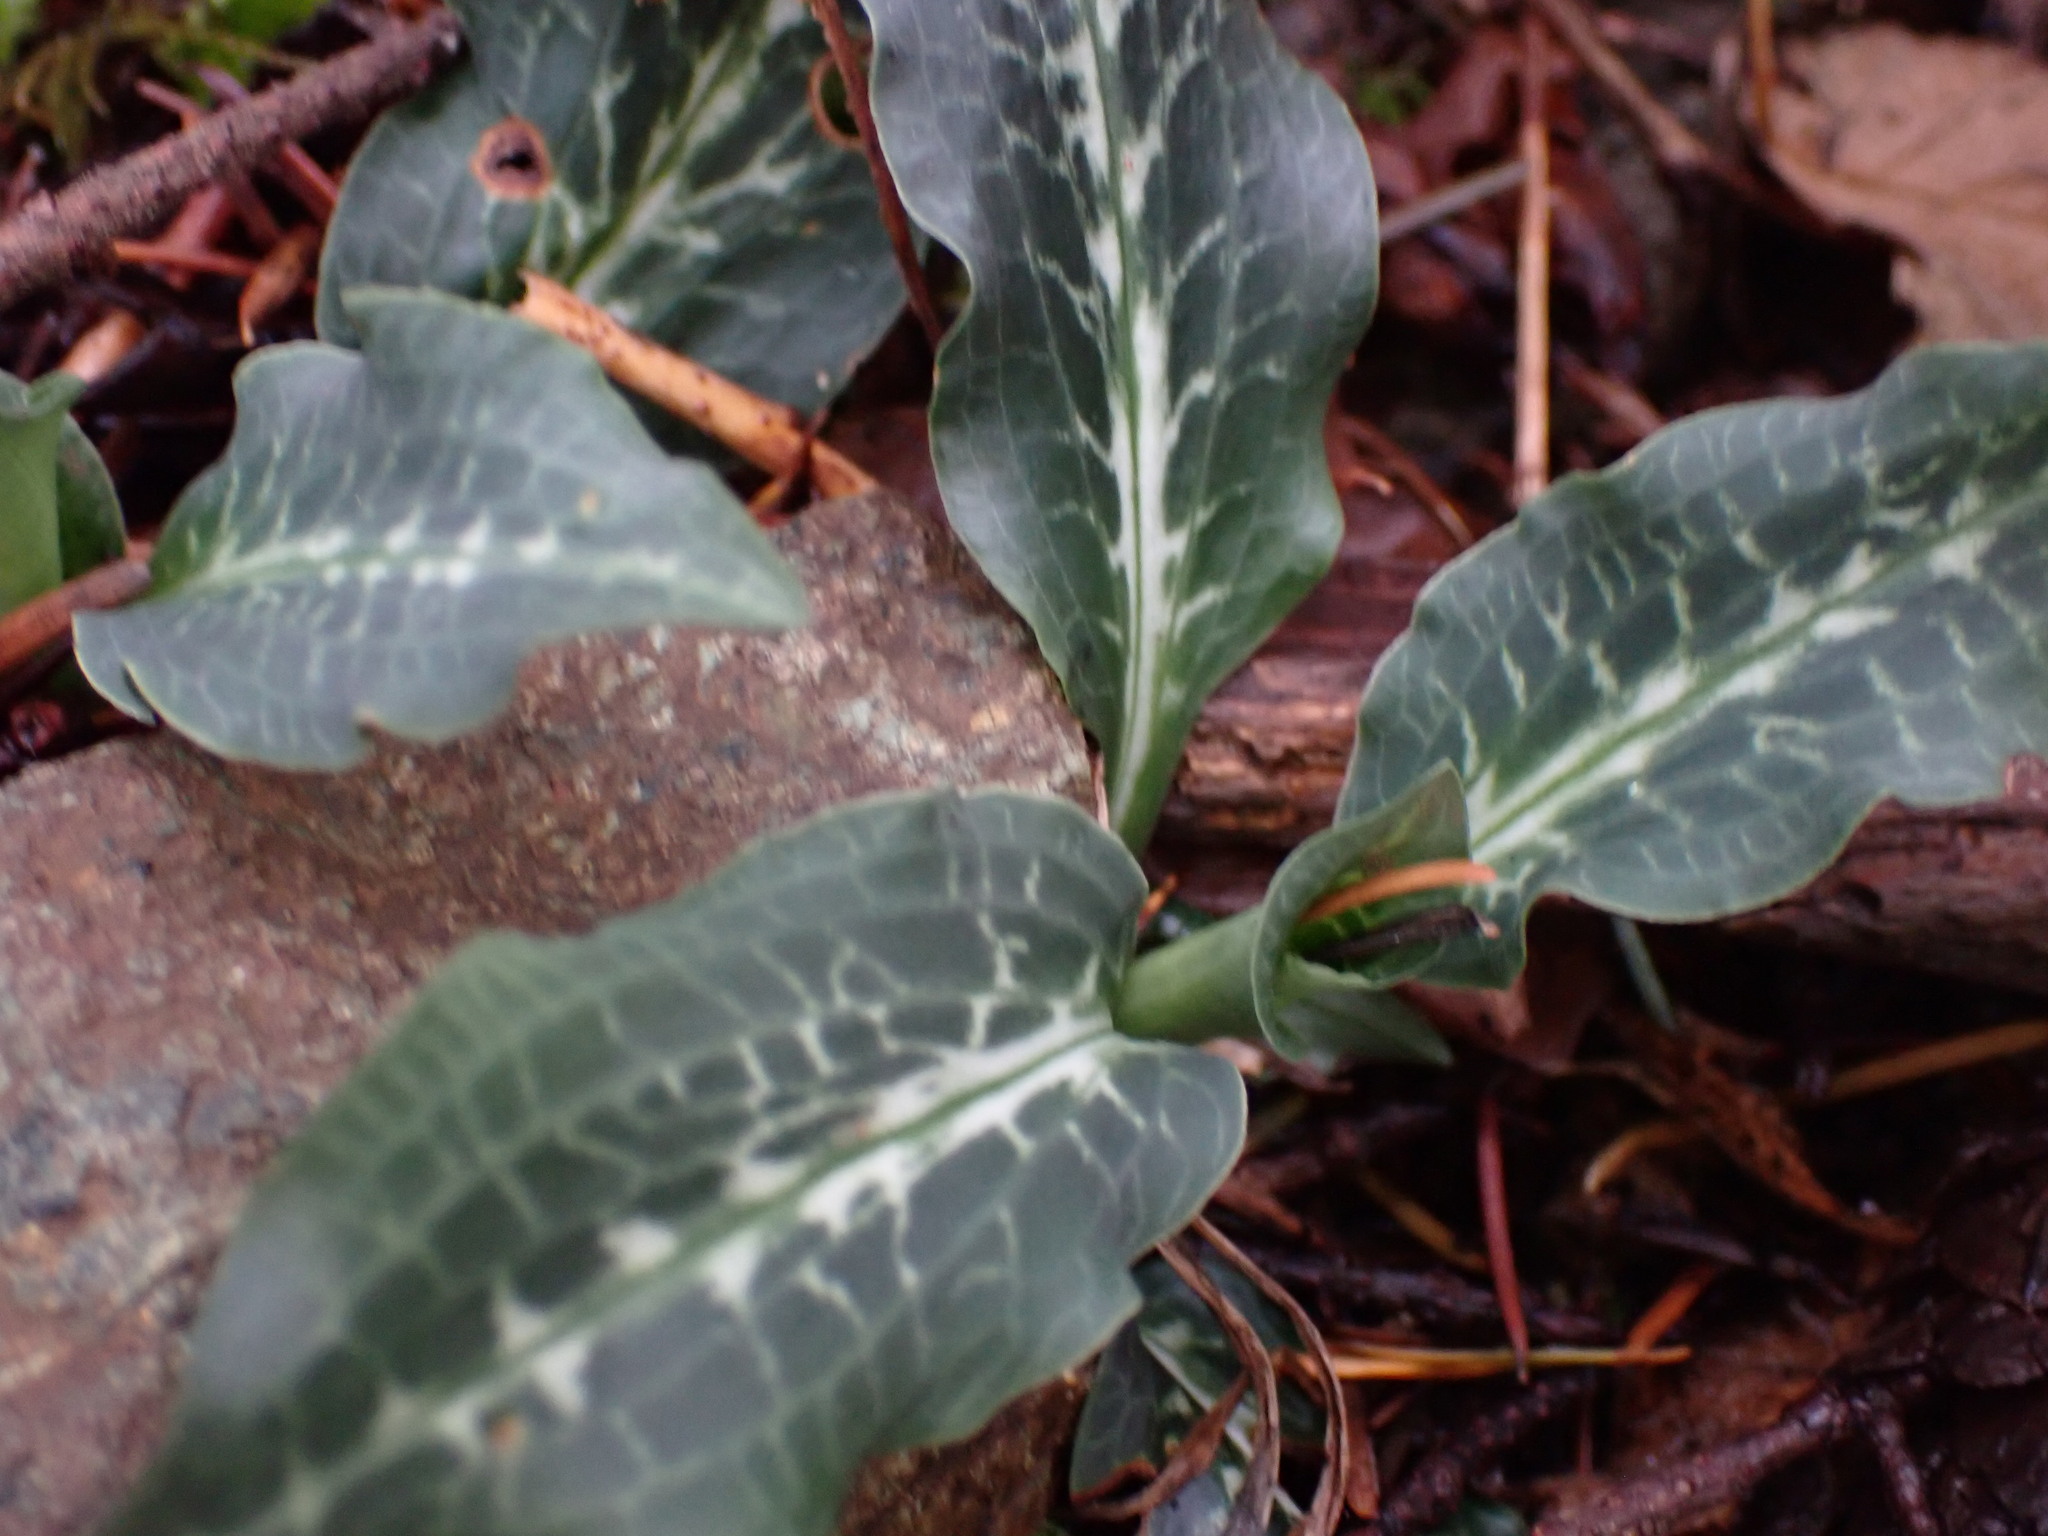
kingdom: Plantae
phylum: Tracheophyta
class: Liliopsida
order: Asparagales
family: Orchidaceae
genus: Goodyera
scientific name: Goodyera oblongifolia
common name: Giant rattlesnake-plantain
